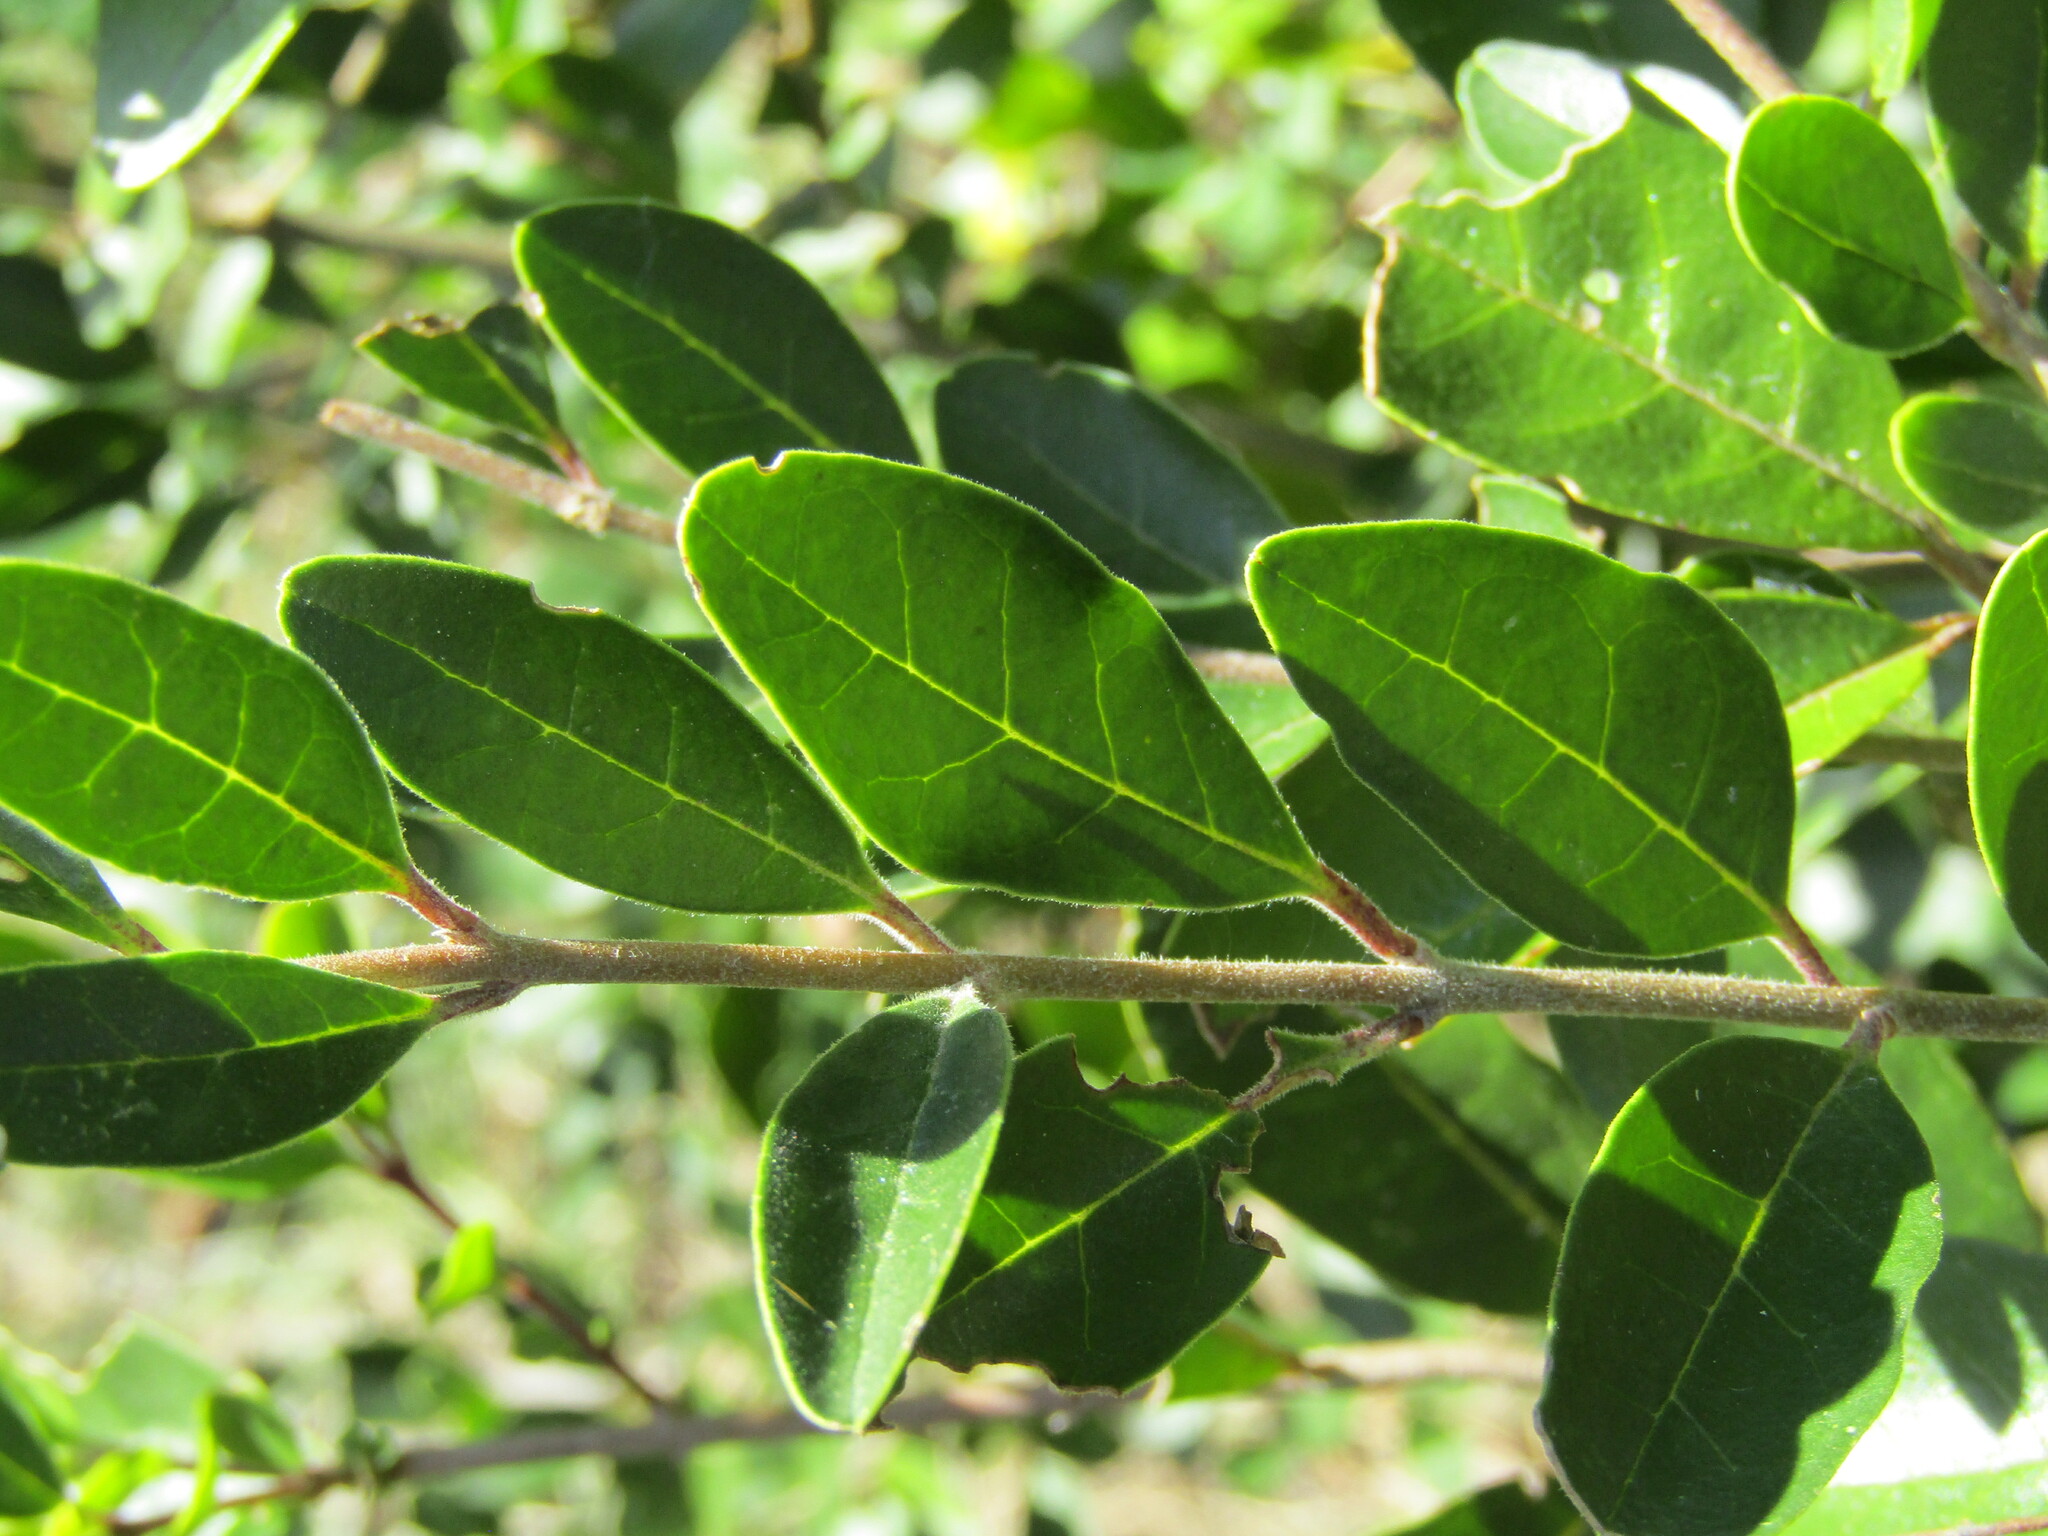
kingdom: Plantae
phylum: Tracheophyta
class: Magnoliopsida
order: Lamiales
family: Oleaceae
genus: Ligustrum
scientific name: Ligustrum sinense
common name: Chinese privet
